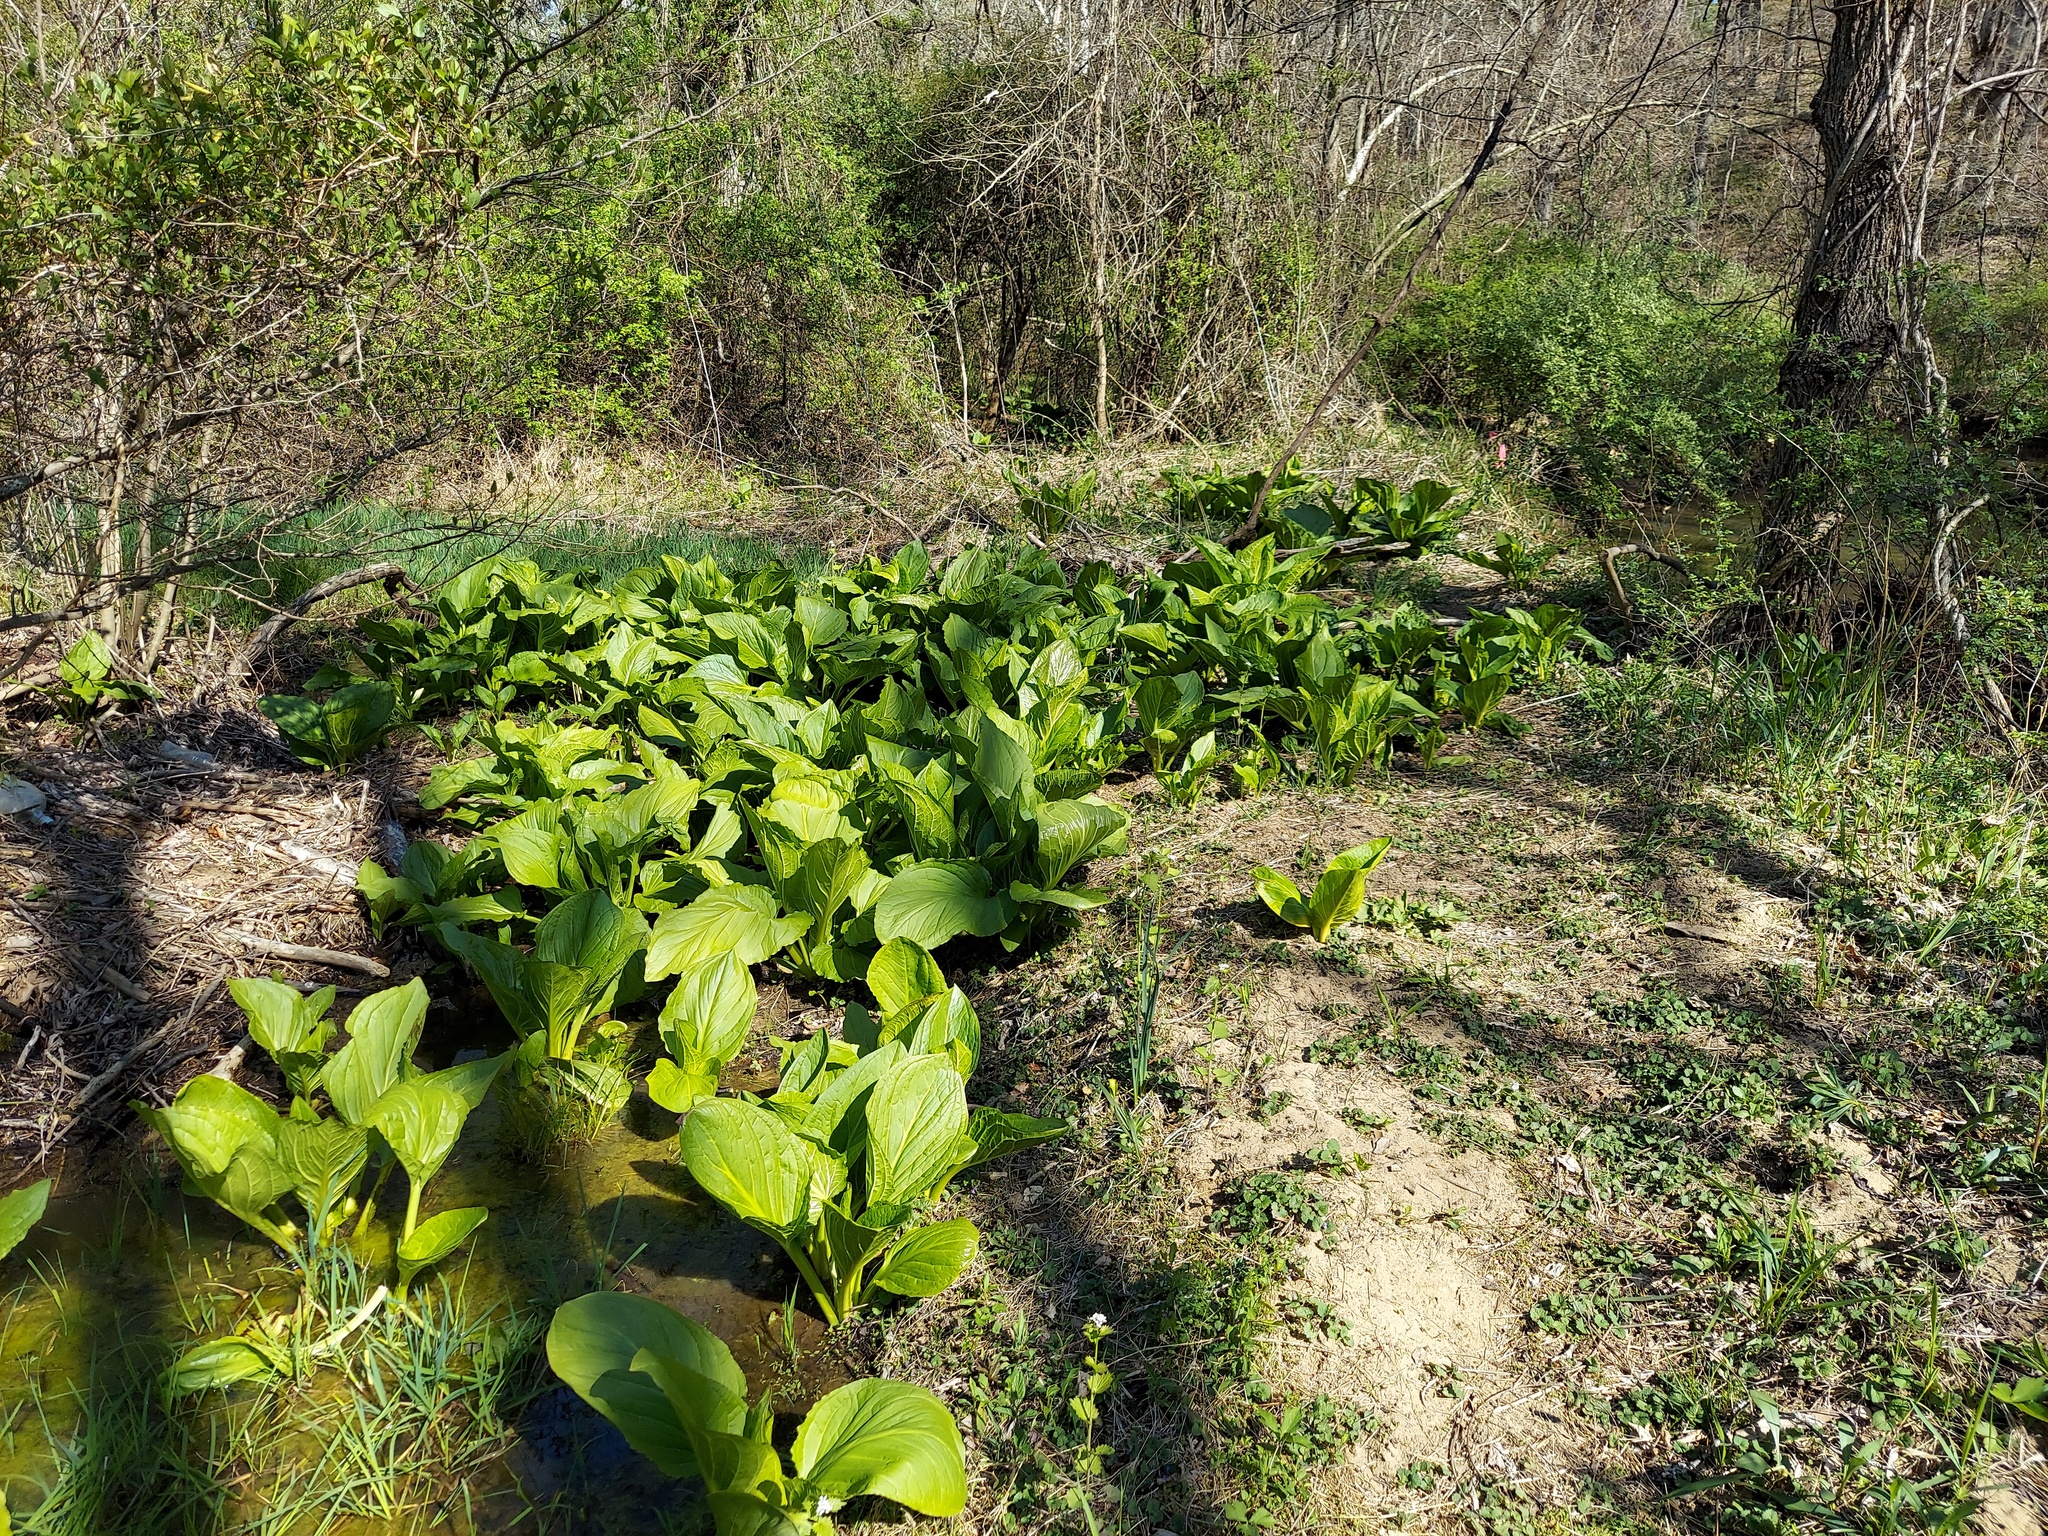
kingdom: Plantae
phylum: Tracheophyta
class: Liliopsida
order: Alismatales
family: Araceae
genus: Symplocarpus
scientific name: Symplocarpus foetidus
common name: Eastern skunk cabbage
